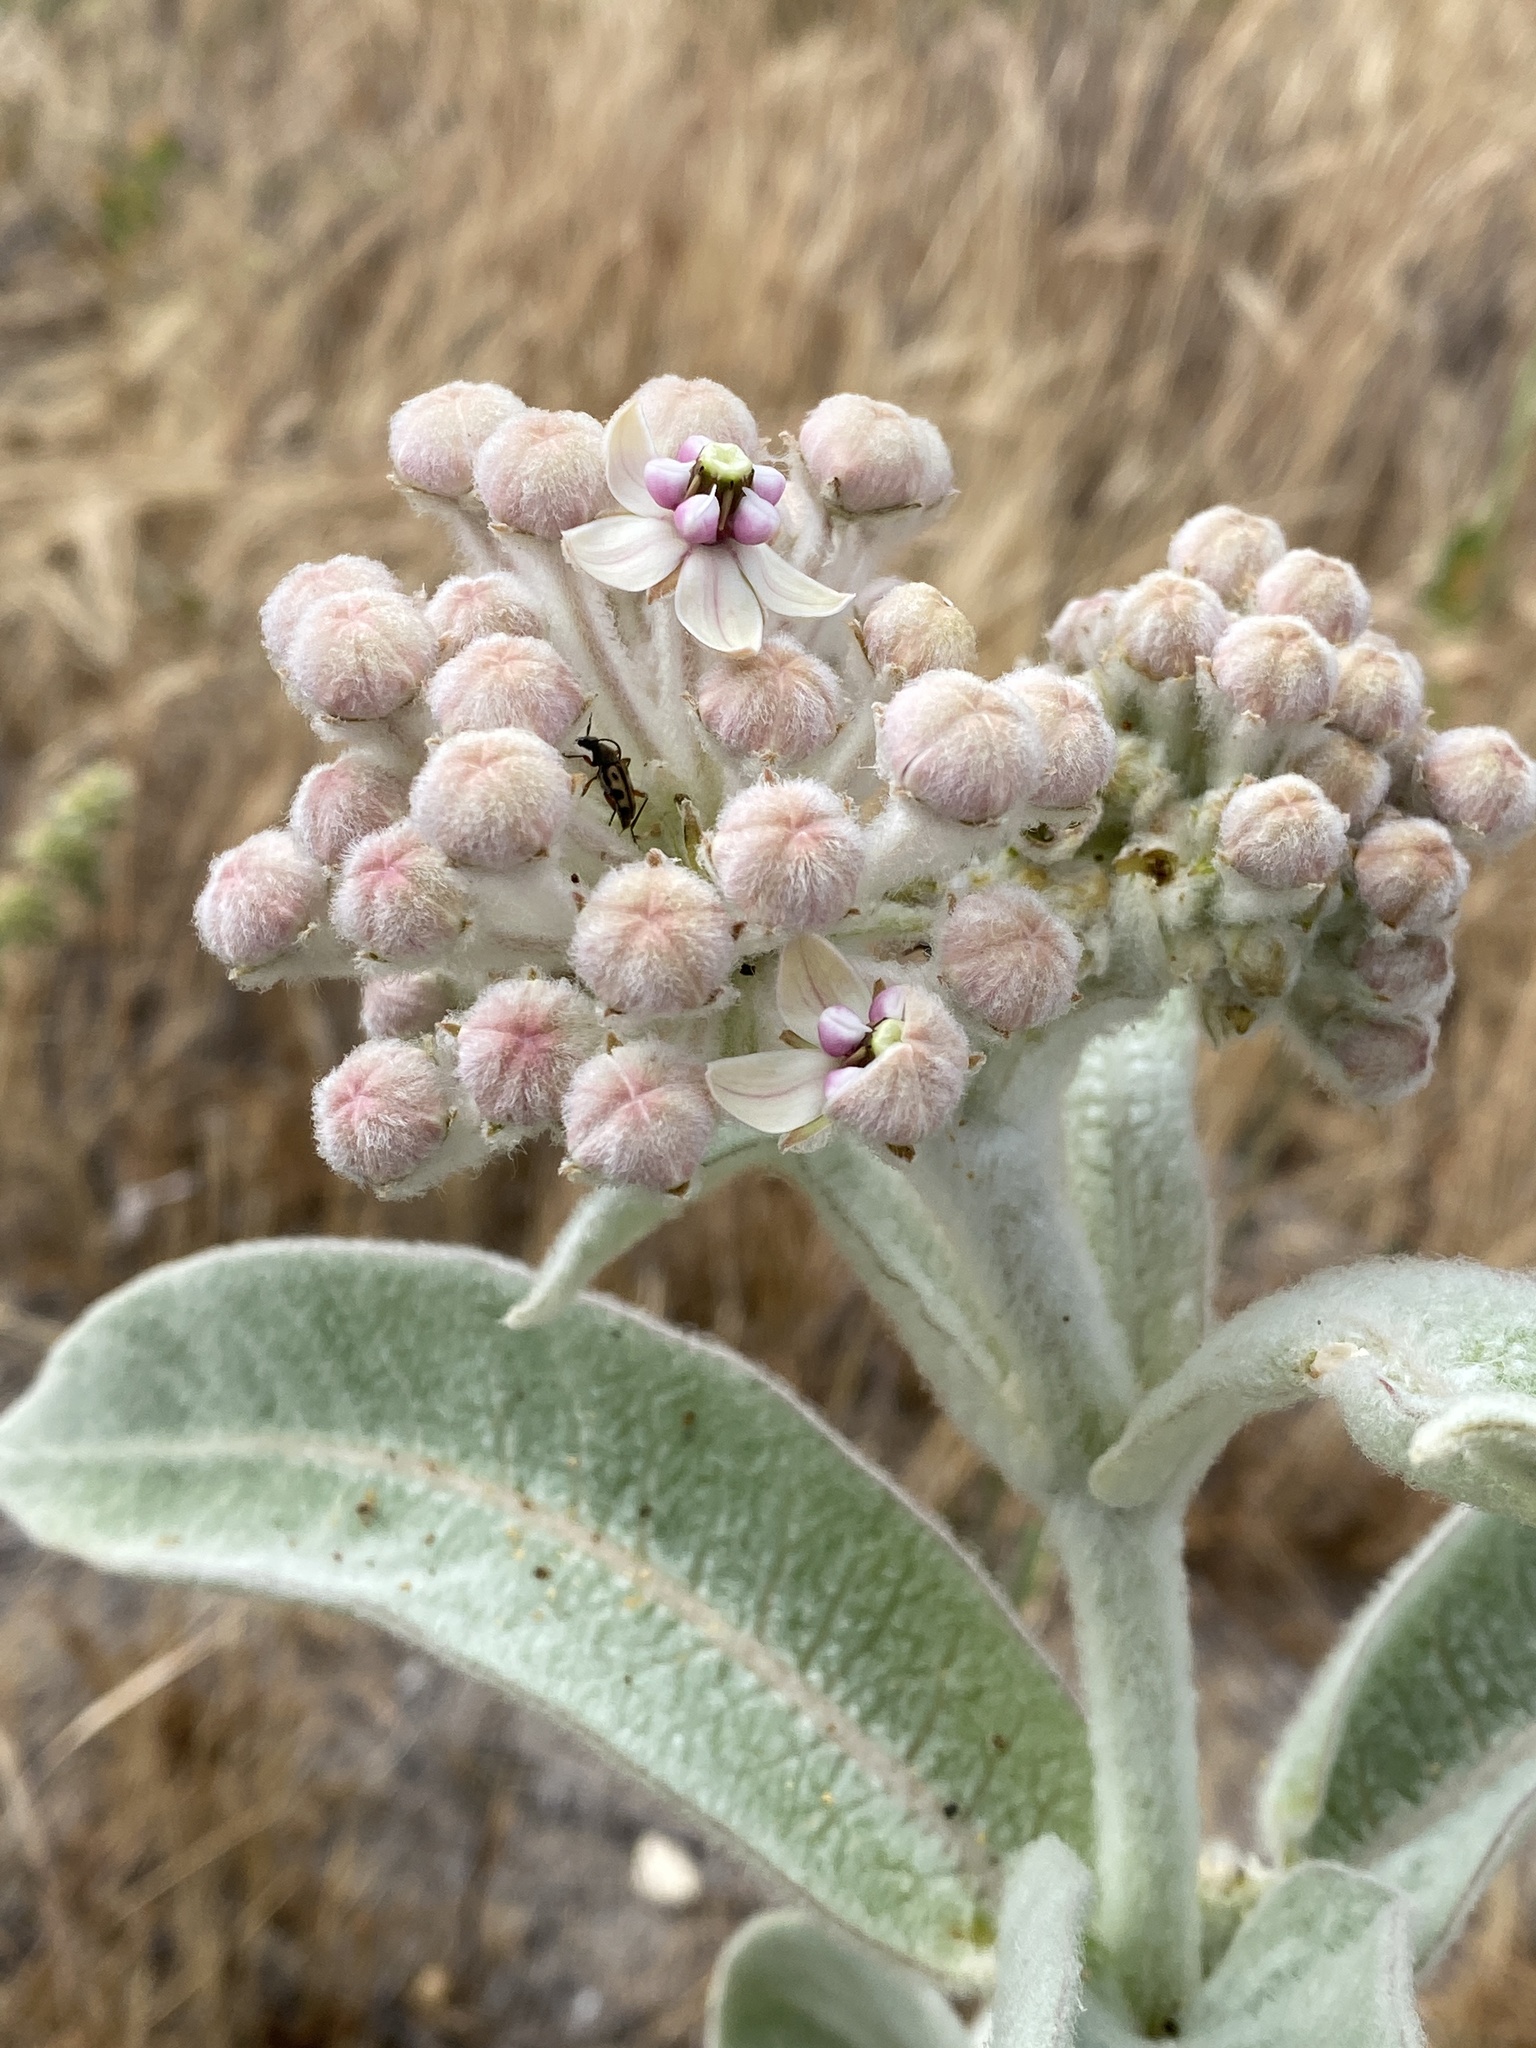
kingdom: Plantae
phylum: Tracheophyta
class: Magnoliopsida
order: Gentianales
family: Apocynaceae
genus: Asclepias
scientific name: Asclepias eriocarpa
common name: Indian milkweed
